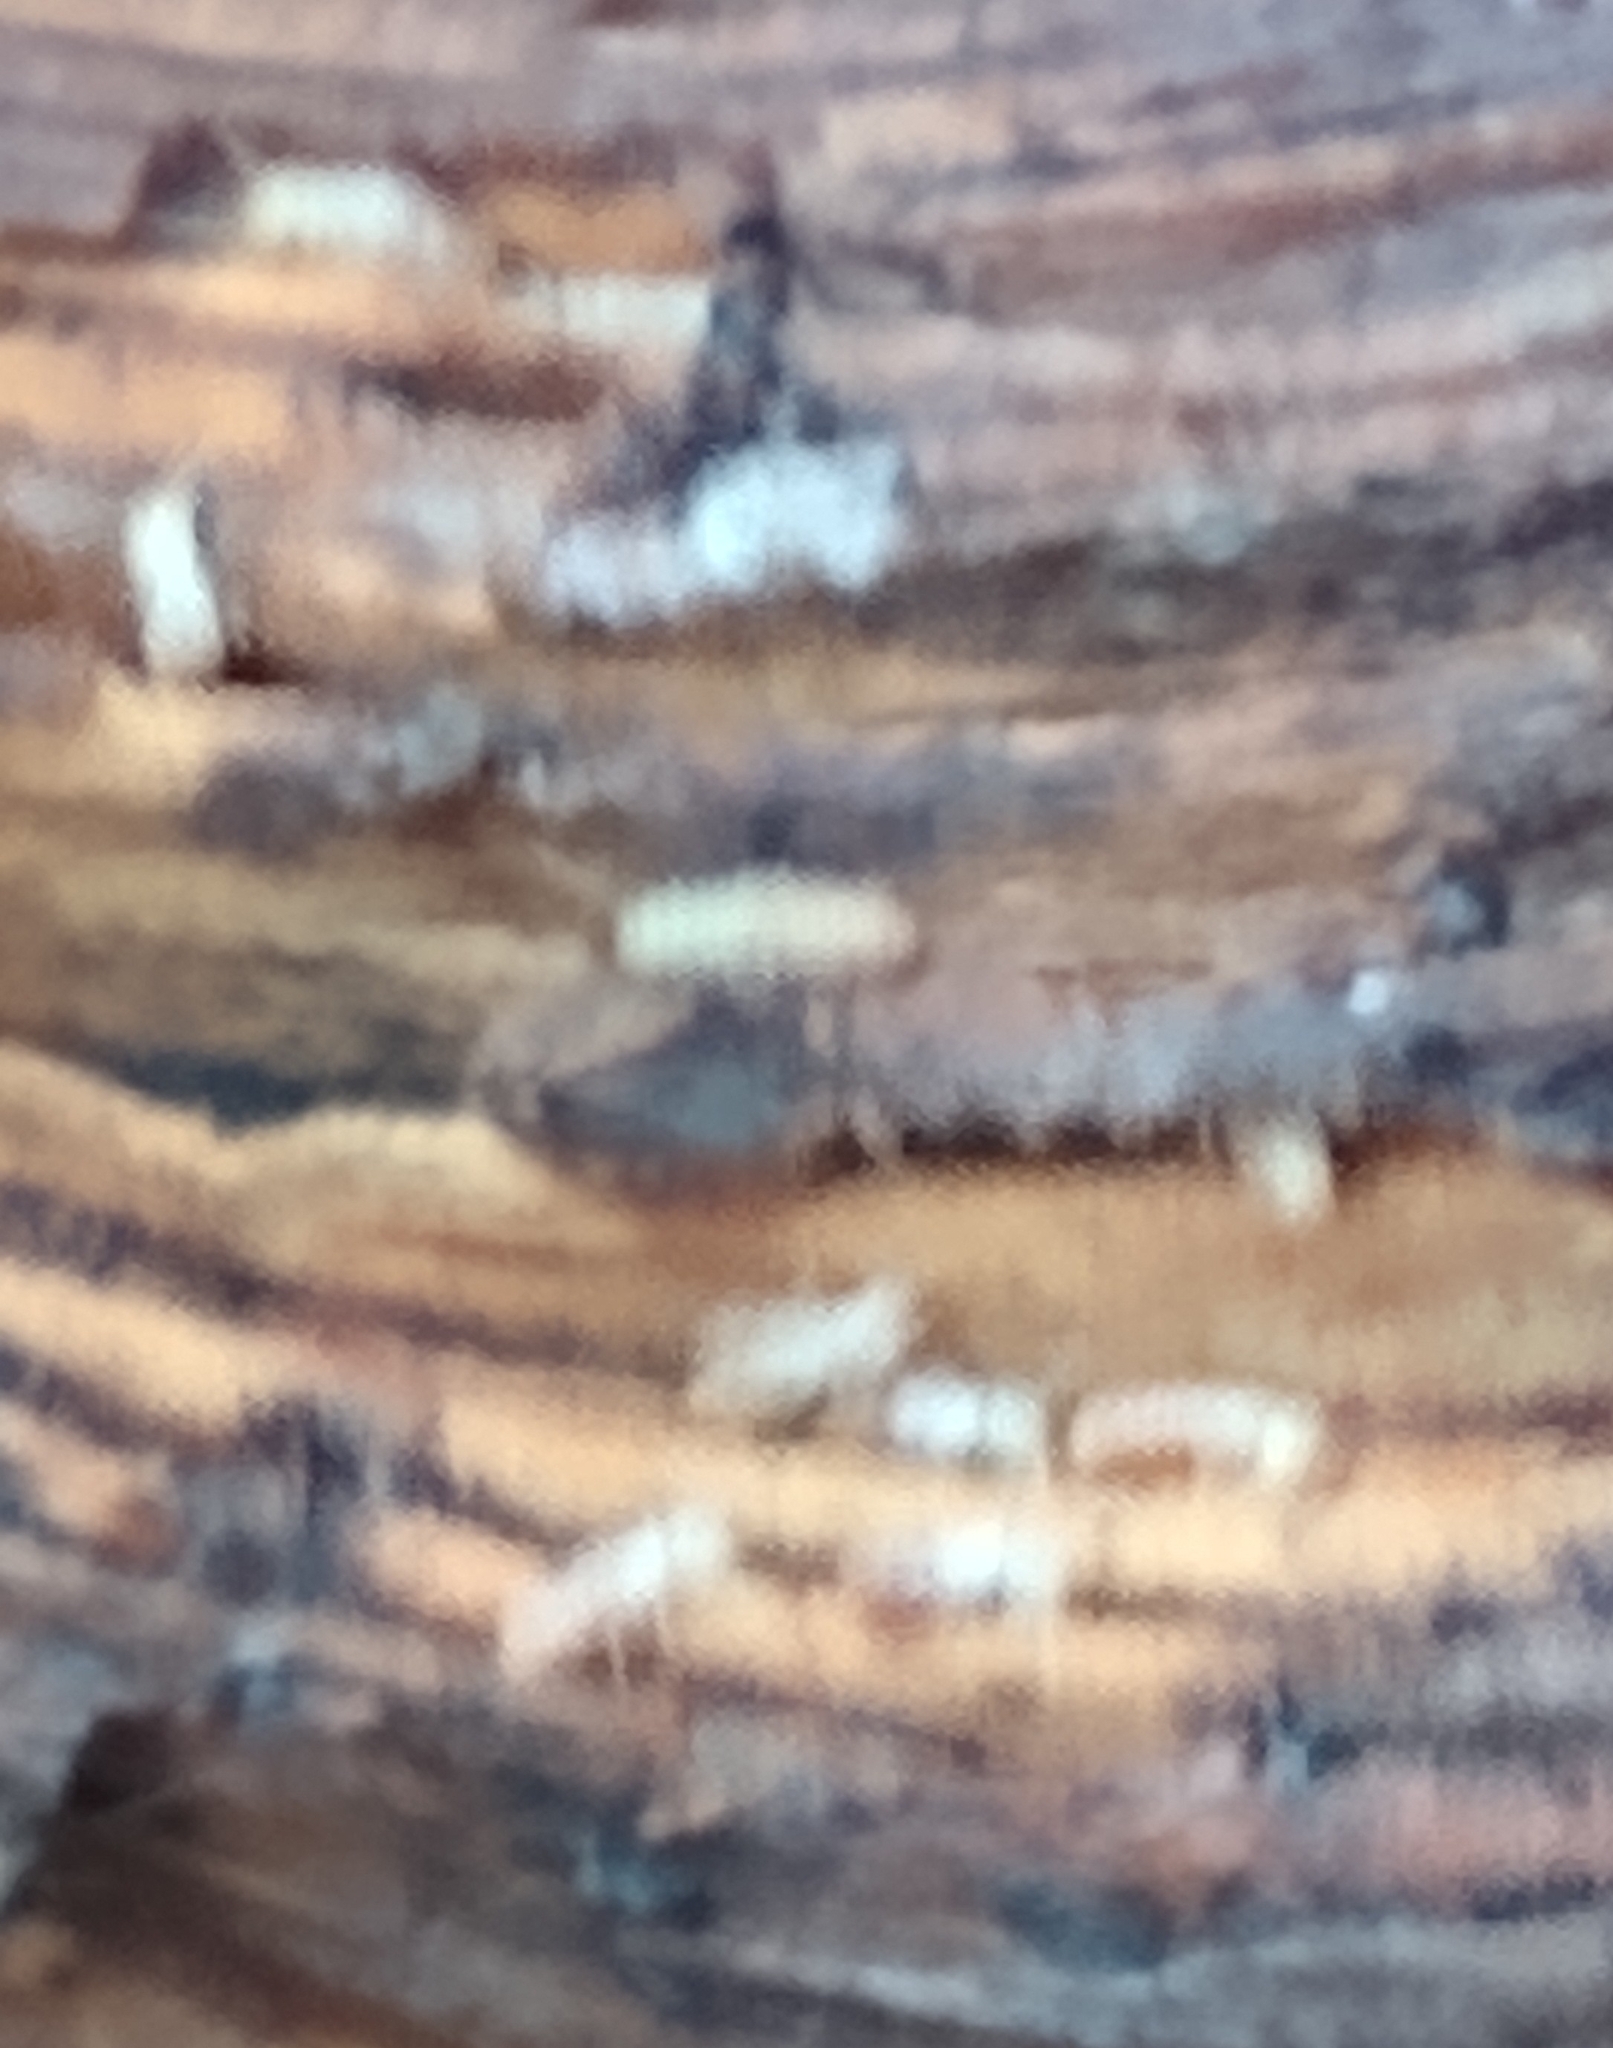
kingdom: Animalia
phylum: Arthropoda
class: Insecta
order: Blattodea
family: Rhinotermitidae
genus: Reticulitermes
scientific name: Reticulitermes flavipes
